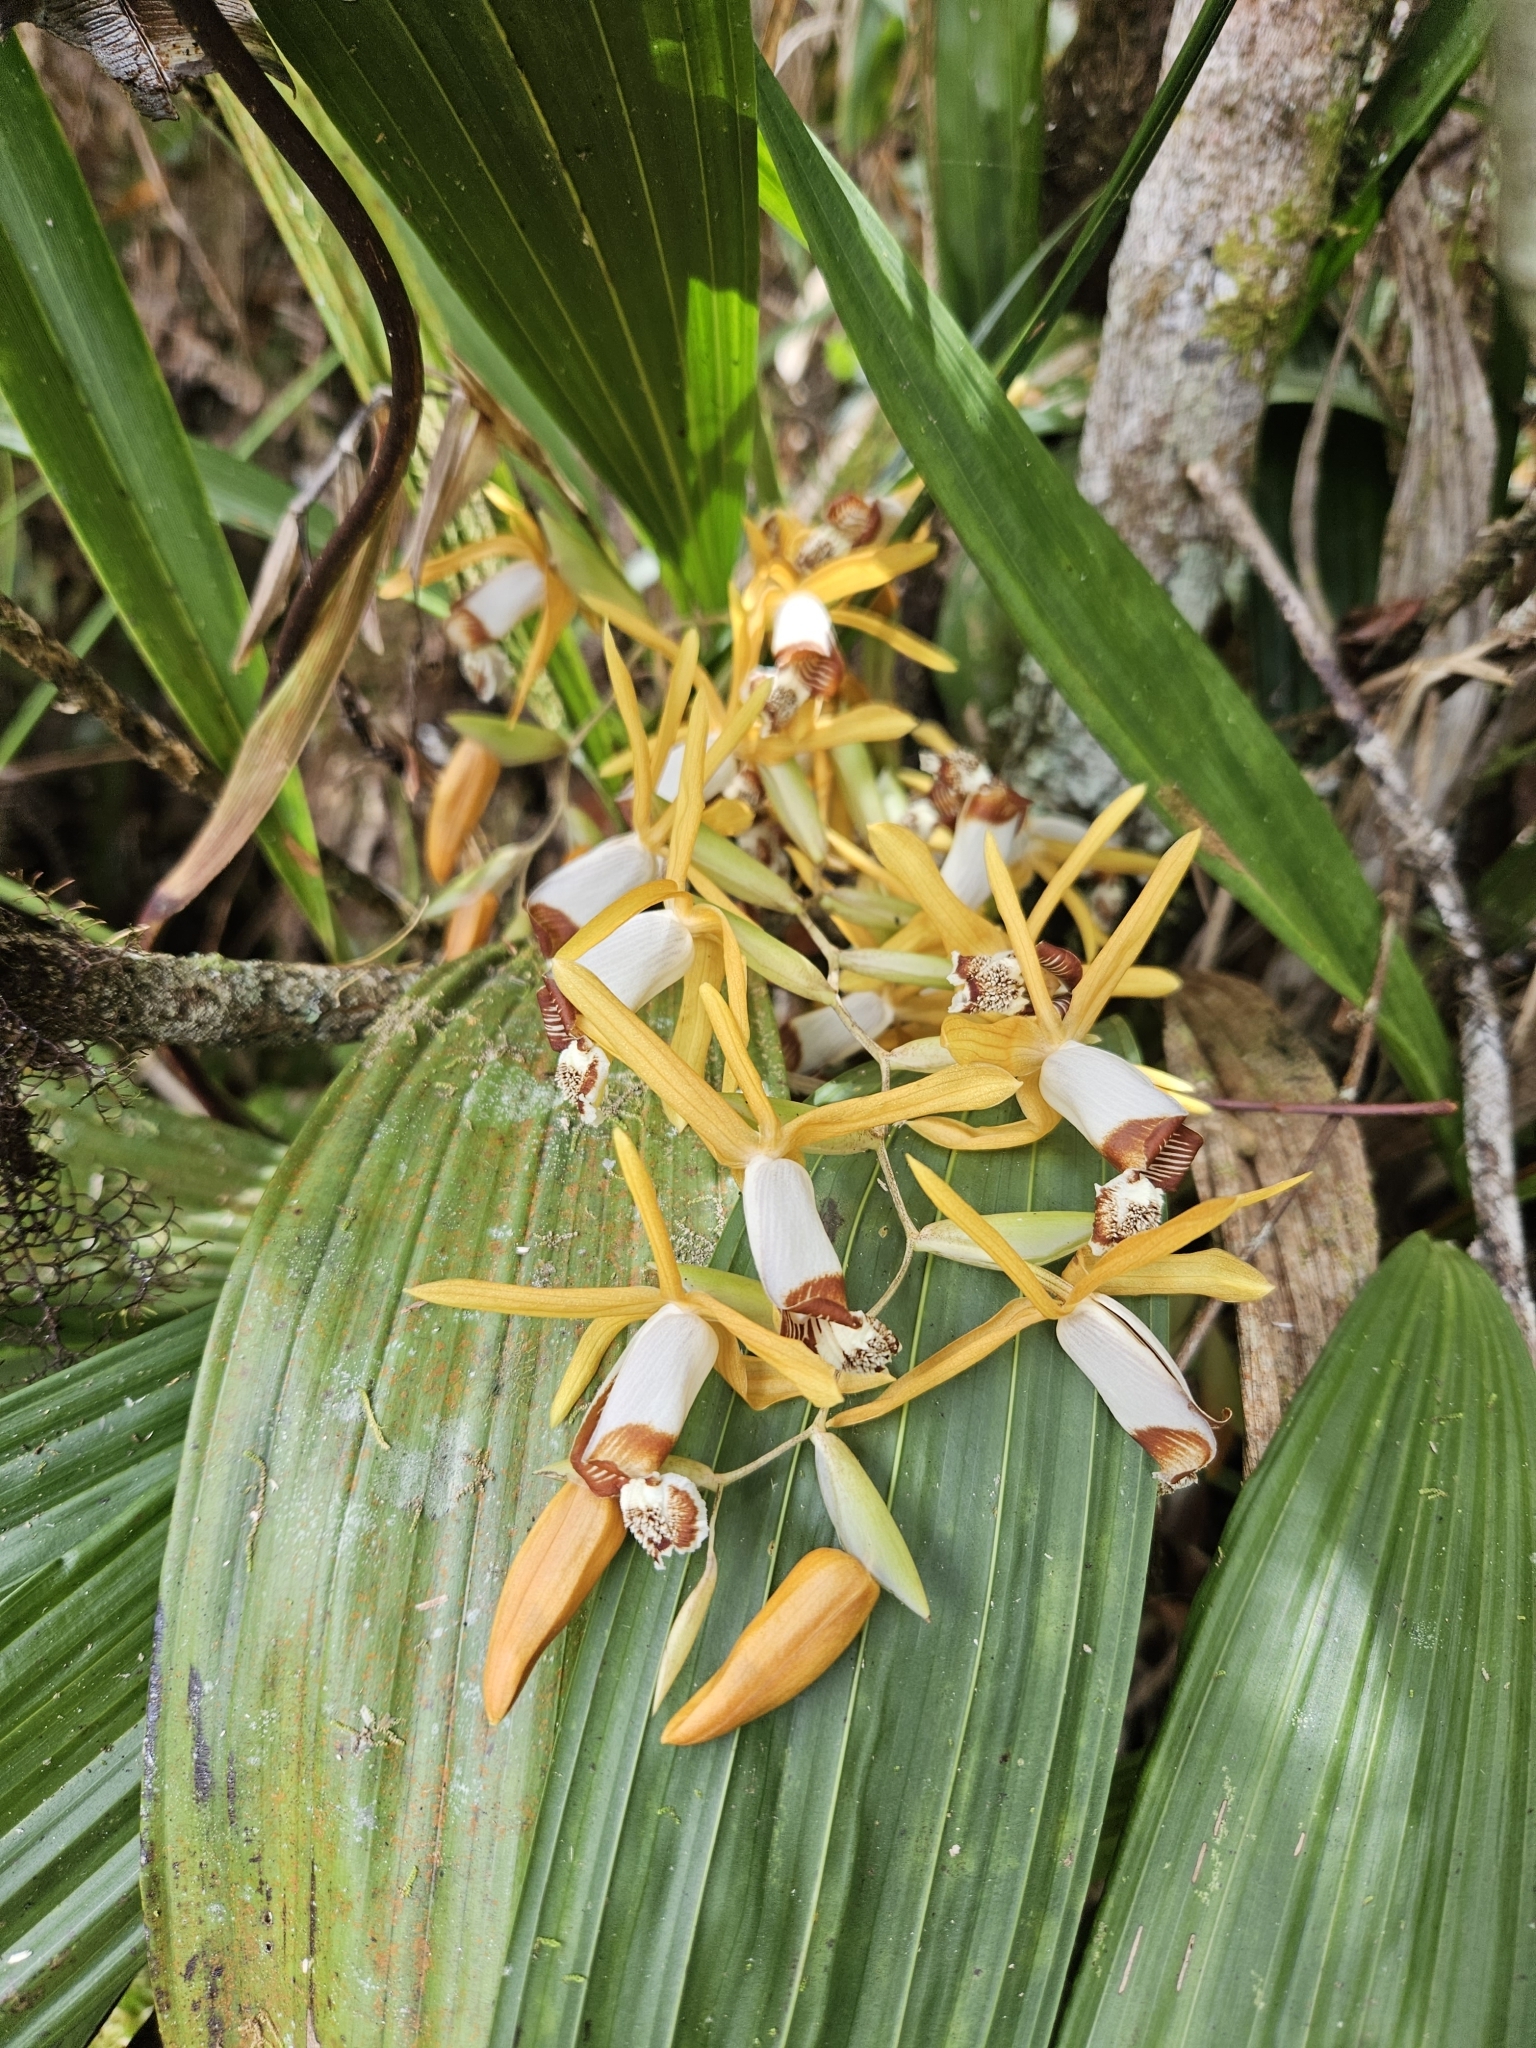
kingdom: Plantae
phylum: Tracheophyta
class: Liliopsida
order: Asparagales
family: Orchidaceae
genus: Coelogyne
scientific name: Coelogyne radioferens
